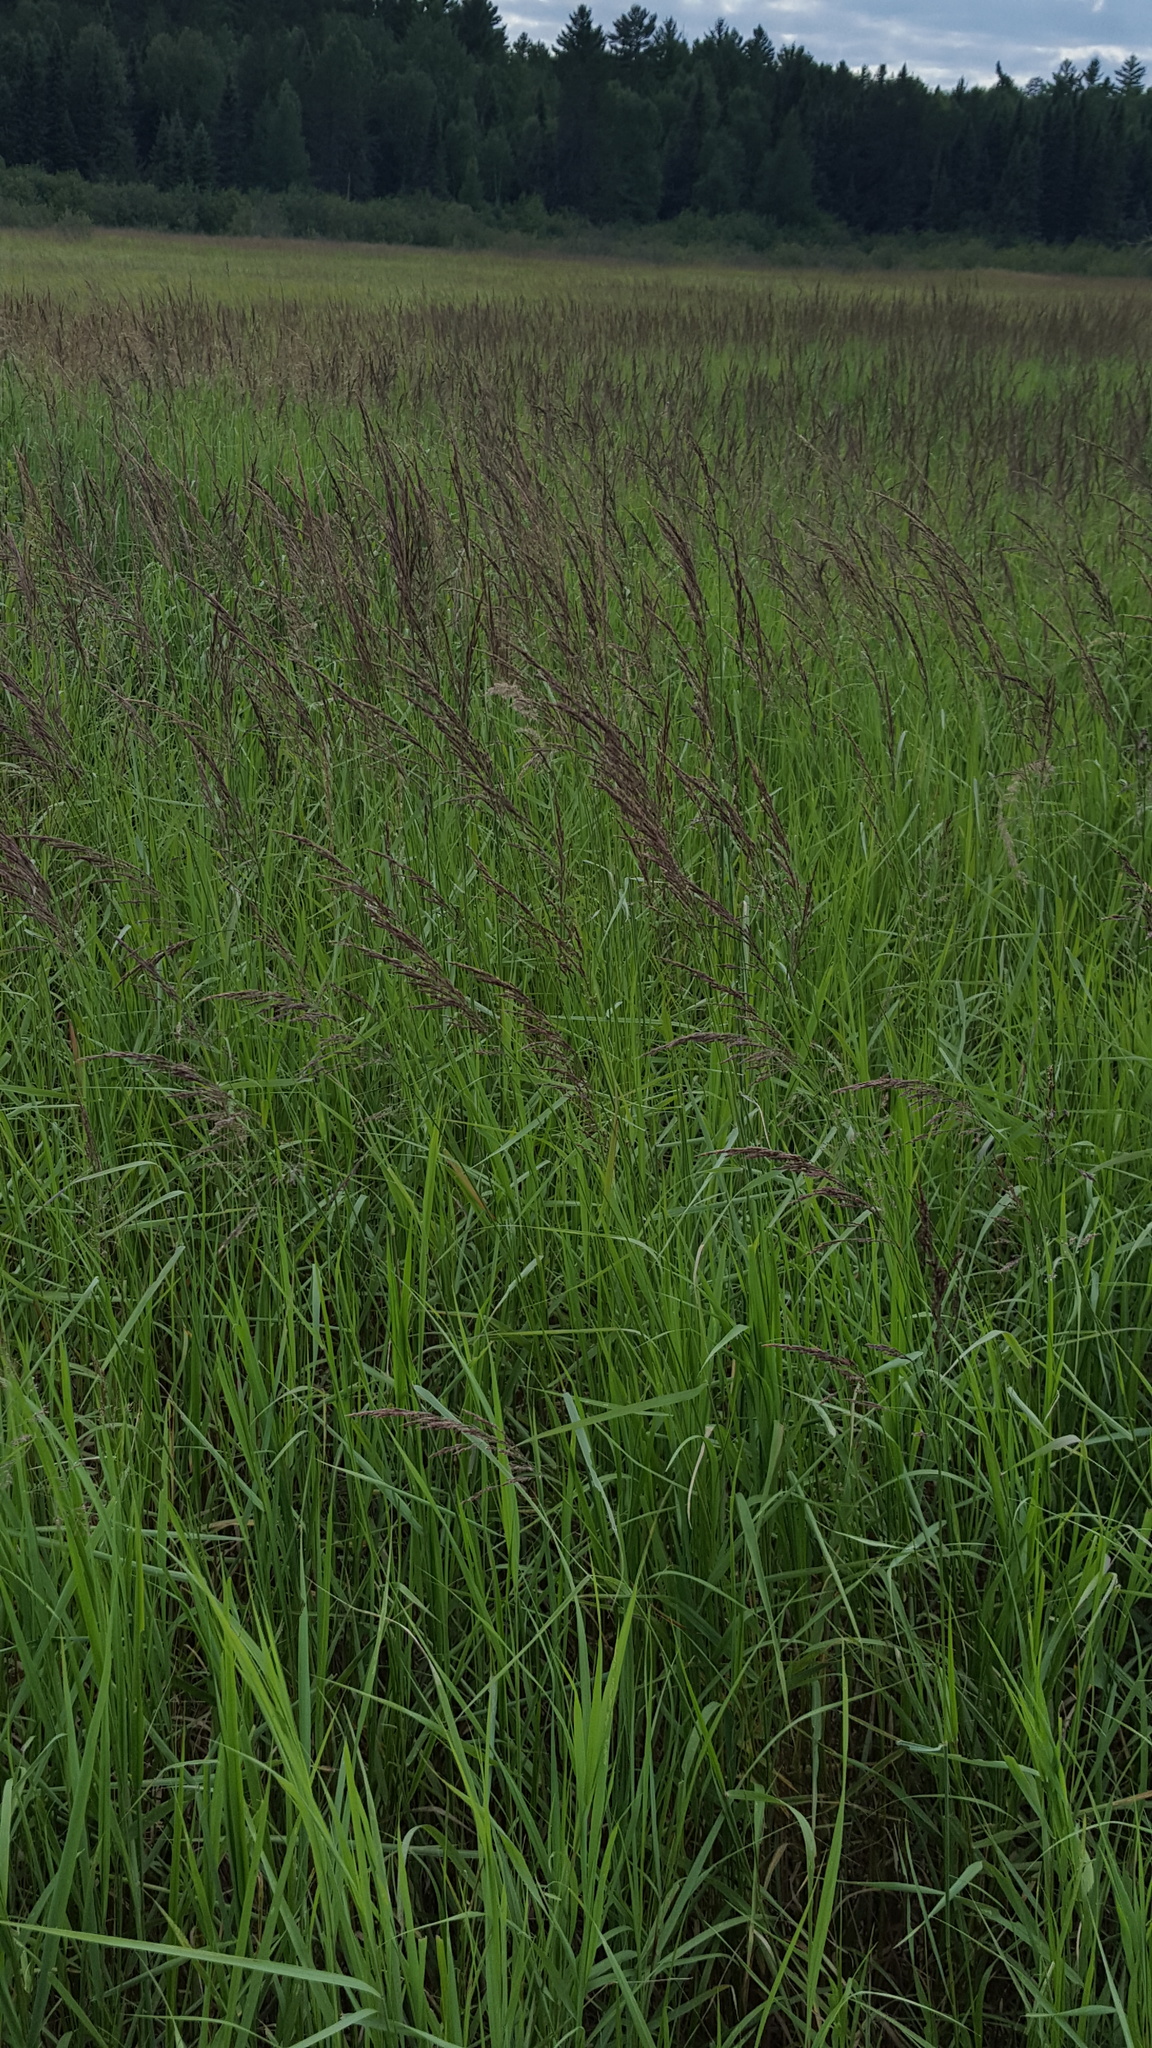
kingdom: Plantae
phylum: Tracheophyta
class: Liliopsida
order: Poales
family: Poaceae
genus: Calamagrostis
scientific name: Calamagrostis canadensis
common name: Canada bluejoint
